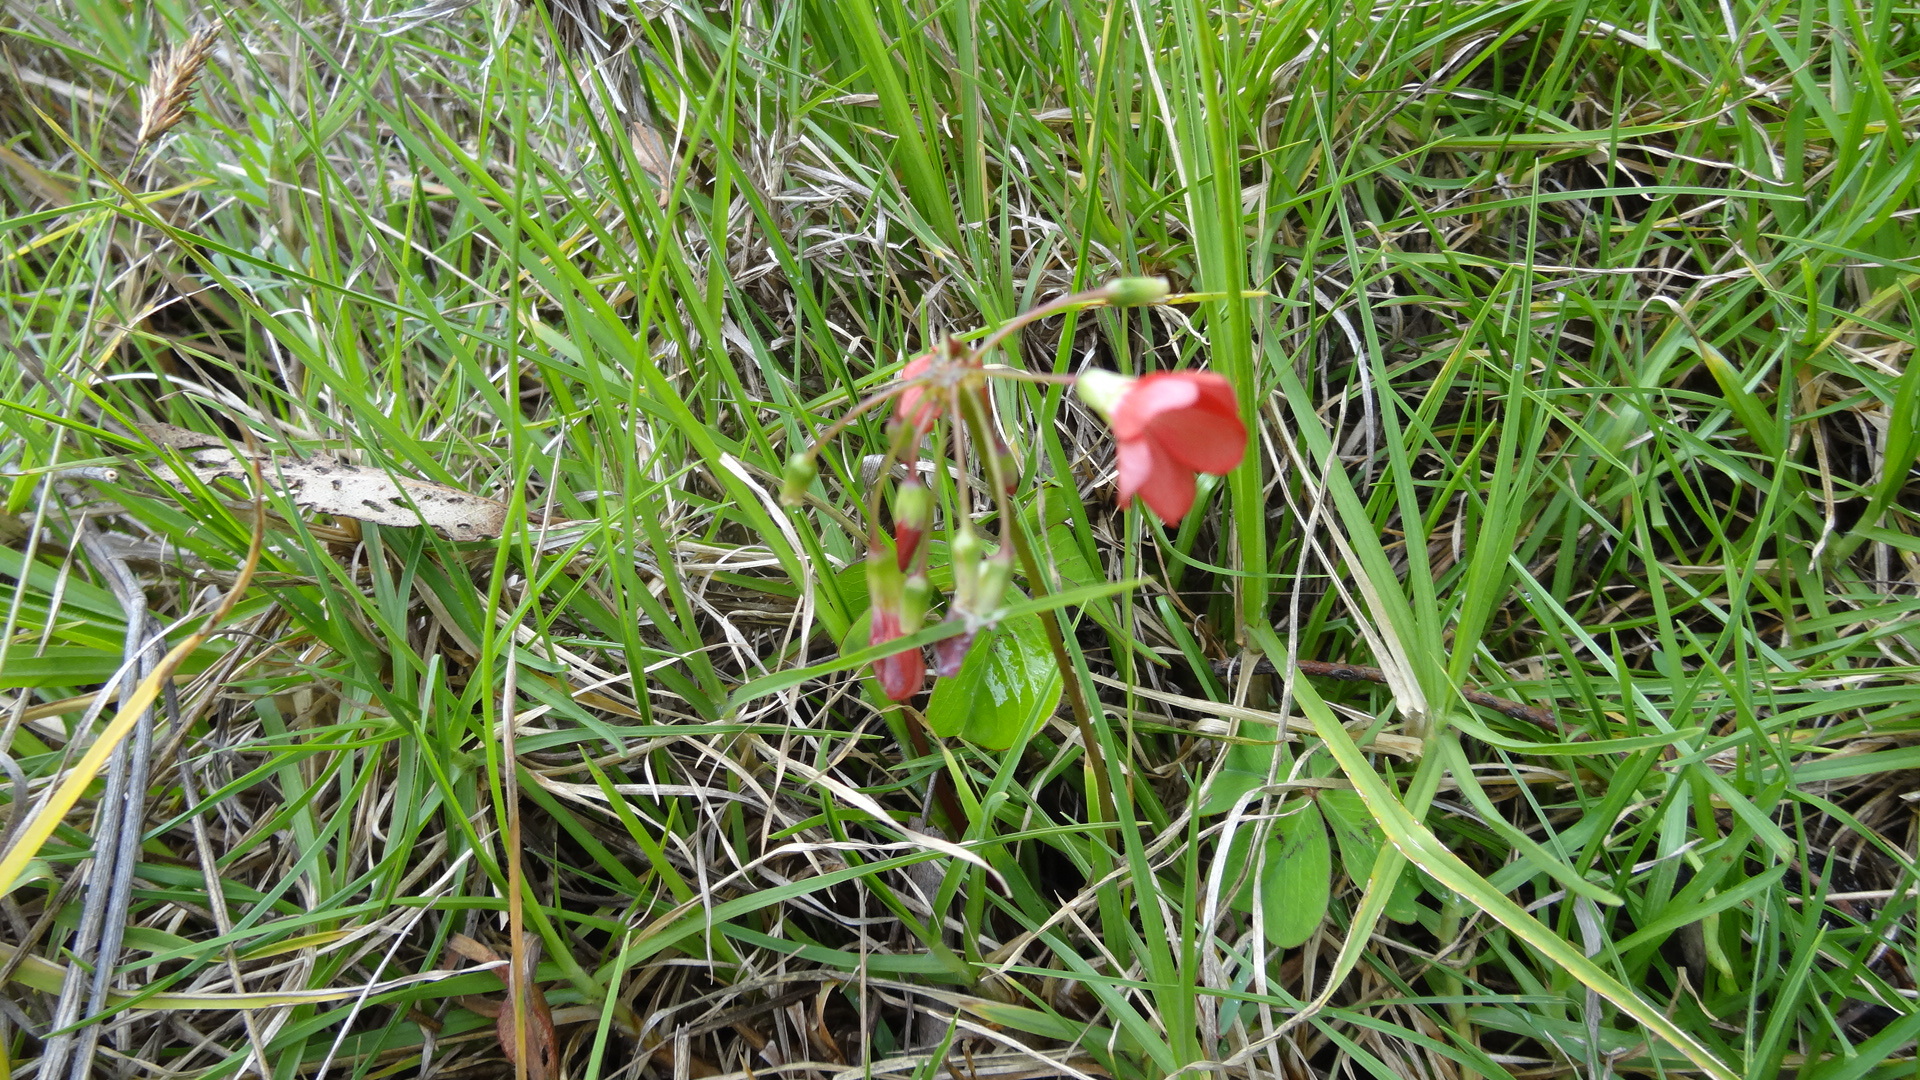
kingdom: Plantae
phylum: Tracheophyta
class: Magnoliopsida
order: Oxalidales
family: Oxalidaceae
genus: Oxalis
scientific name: Oxalis tetraphylla
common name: Four-leaved pink-sorrel
